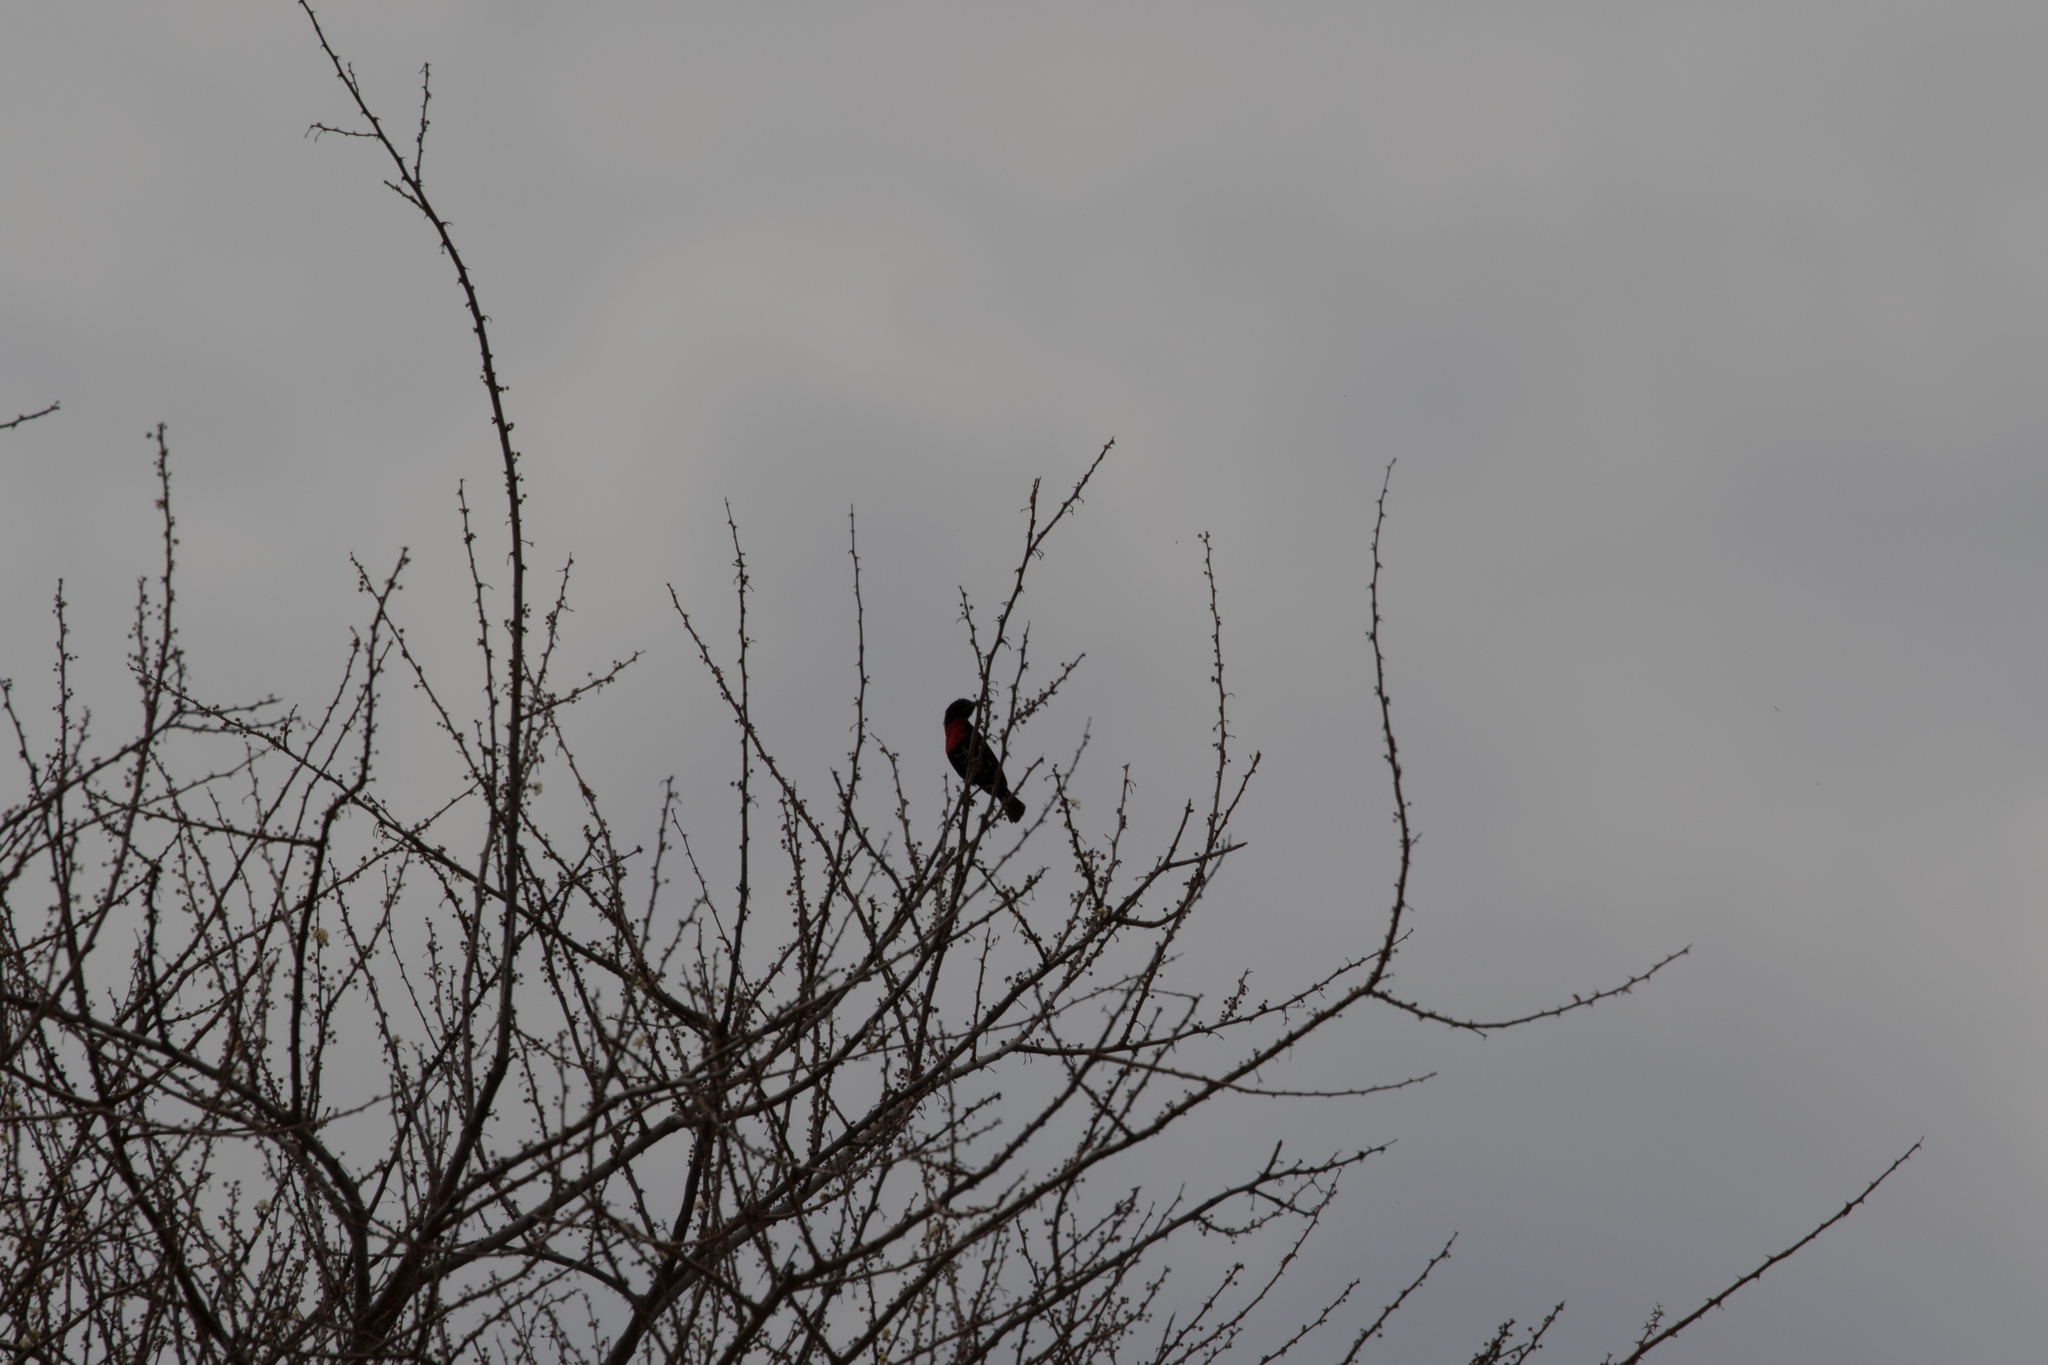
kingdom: Animalia
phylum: Chordata
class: Aves
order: Passeriformes
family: Nectariniidae
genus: Chalcomitra
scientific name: Chalcomitra hunteri
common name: Hunter's sunbird
